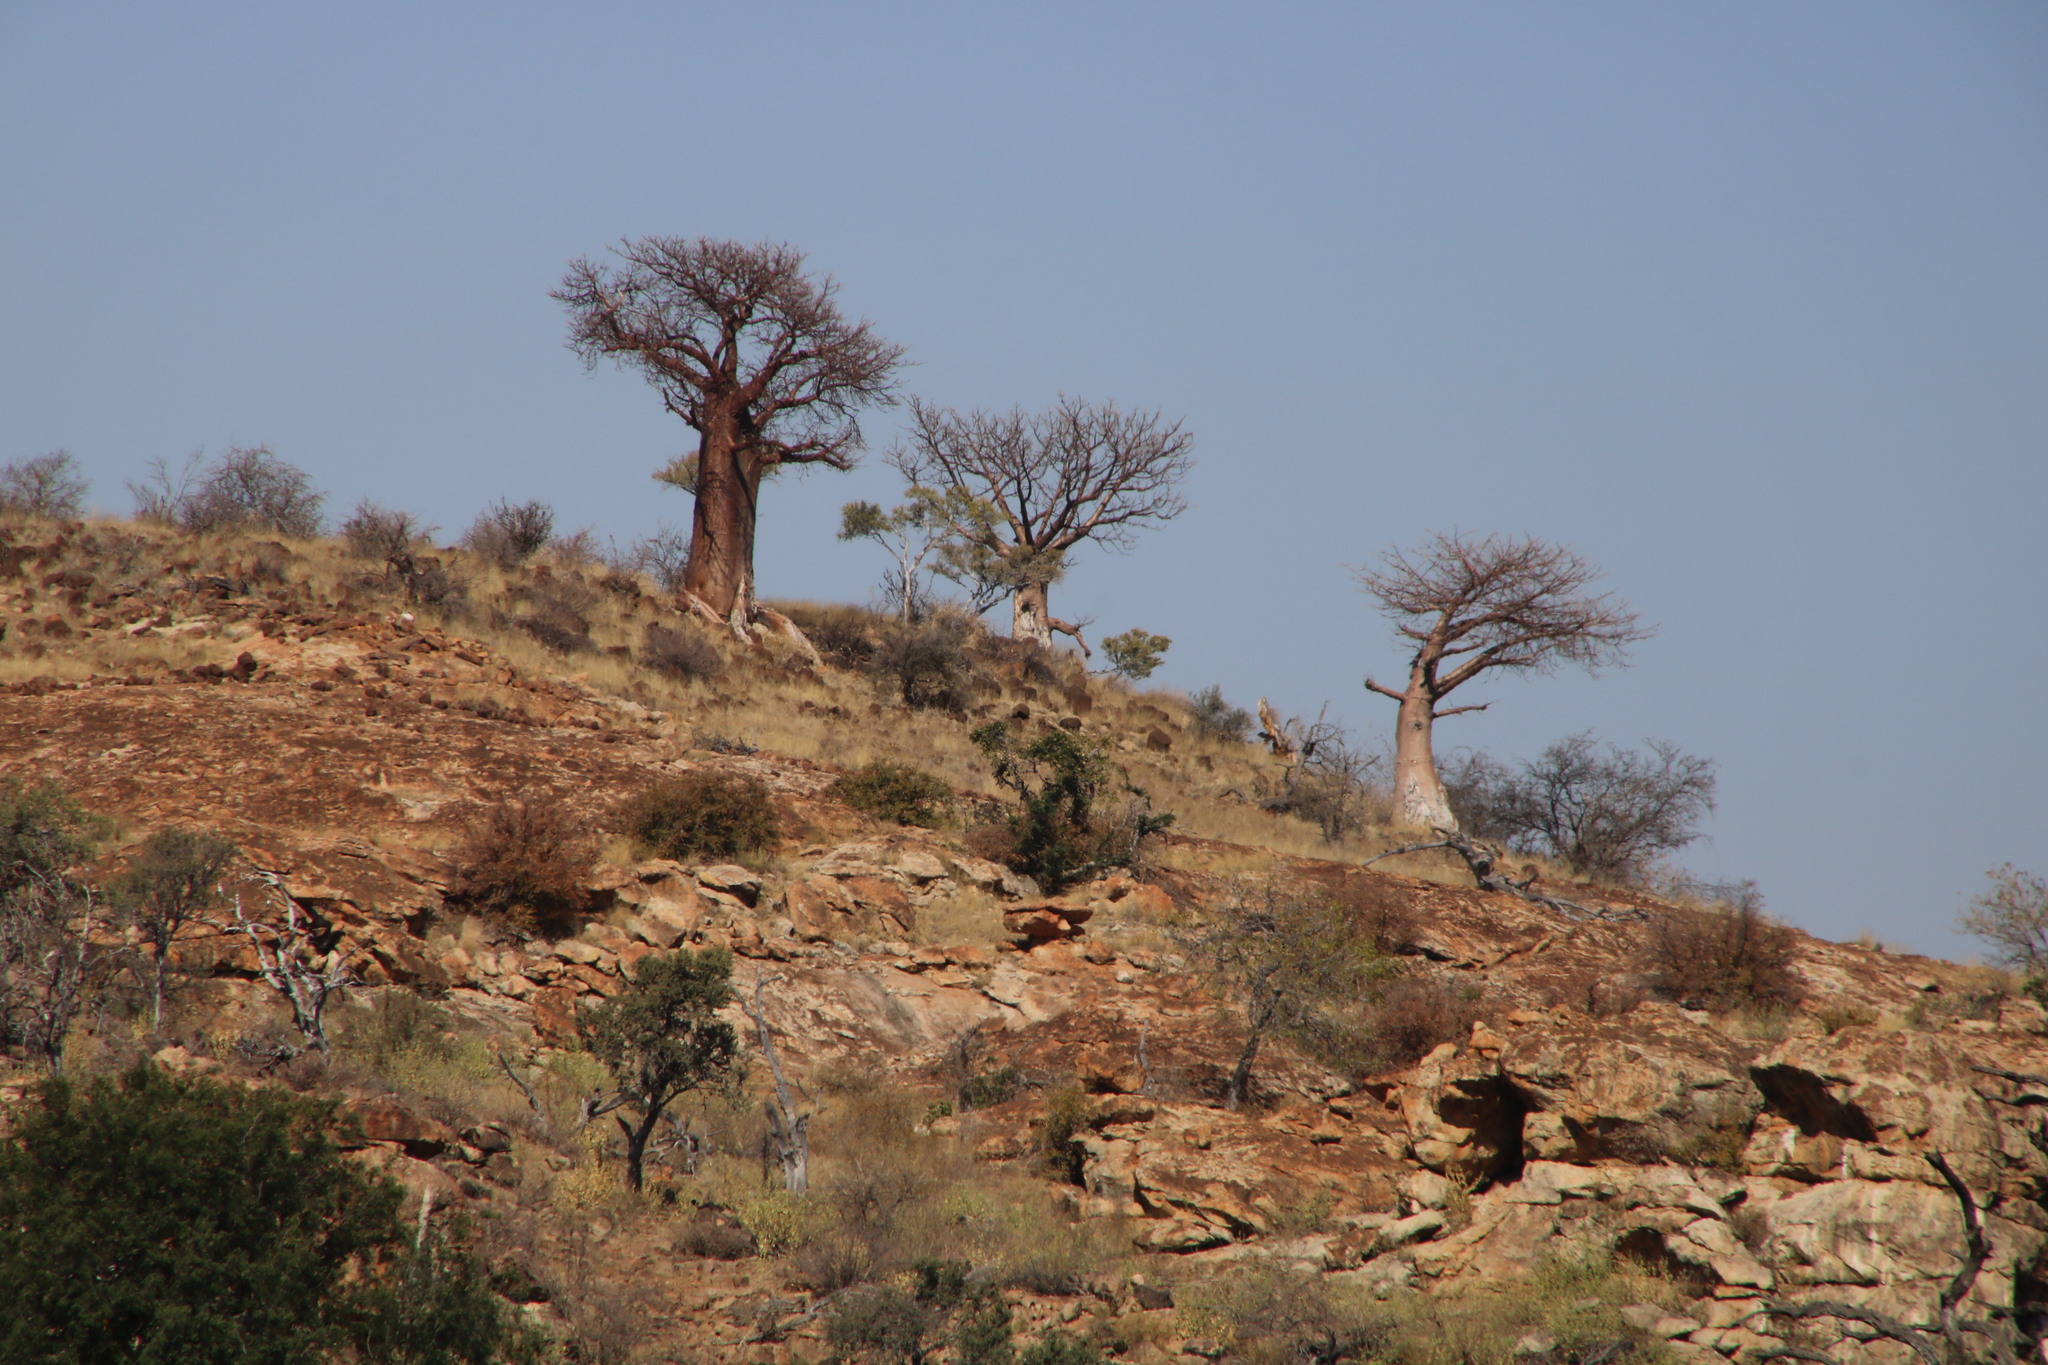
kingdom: Plantae
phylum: Tracheophyta
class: Magnoliopsida
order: Malvales
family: Malvaceae
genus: Adansonia
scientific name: Adansonia digitata
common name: Dead-rat-tree
